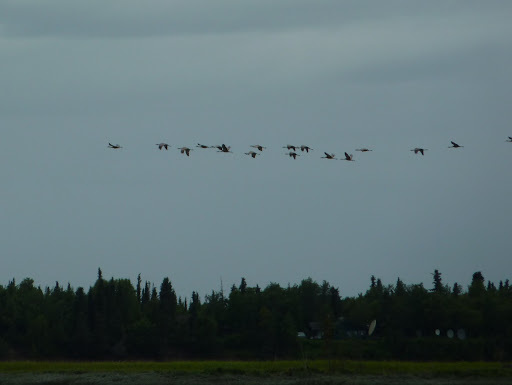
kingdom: Animalia
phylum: Chordata
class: Aves
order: Gruiformes
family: Gruidae
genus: Grus
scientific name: Grus canadensis
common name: Sandhill crane
